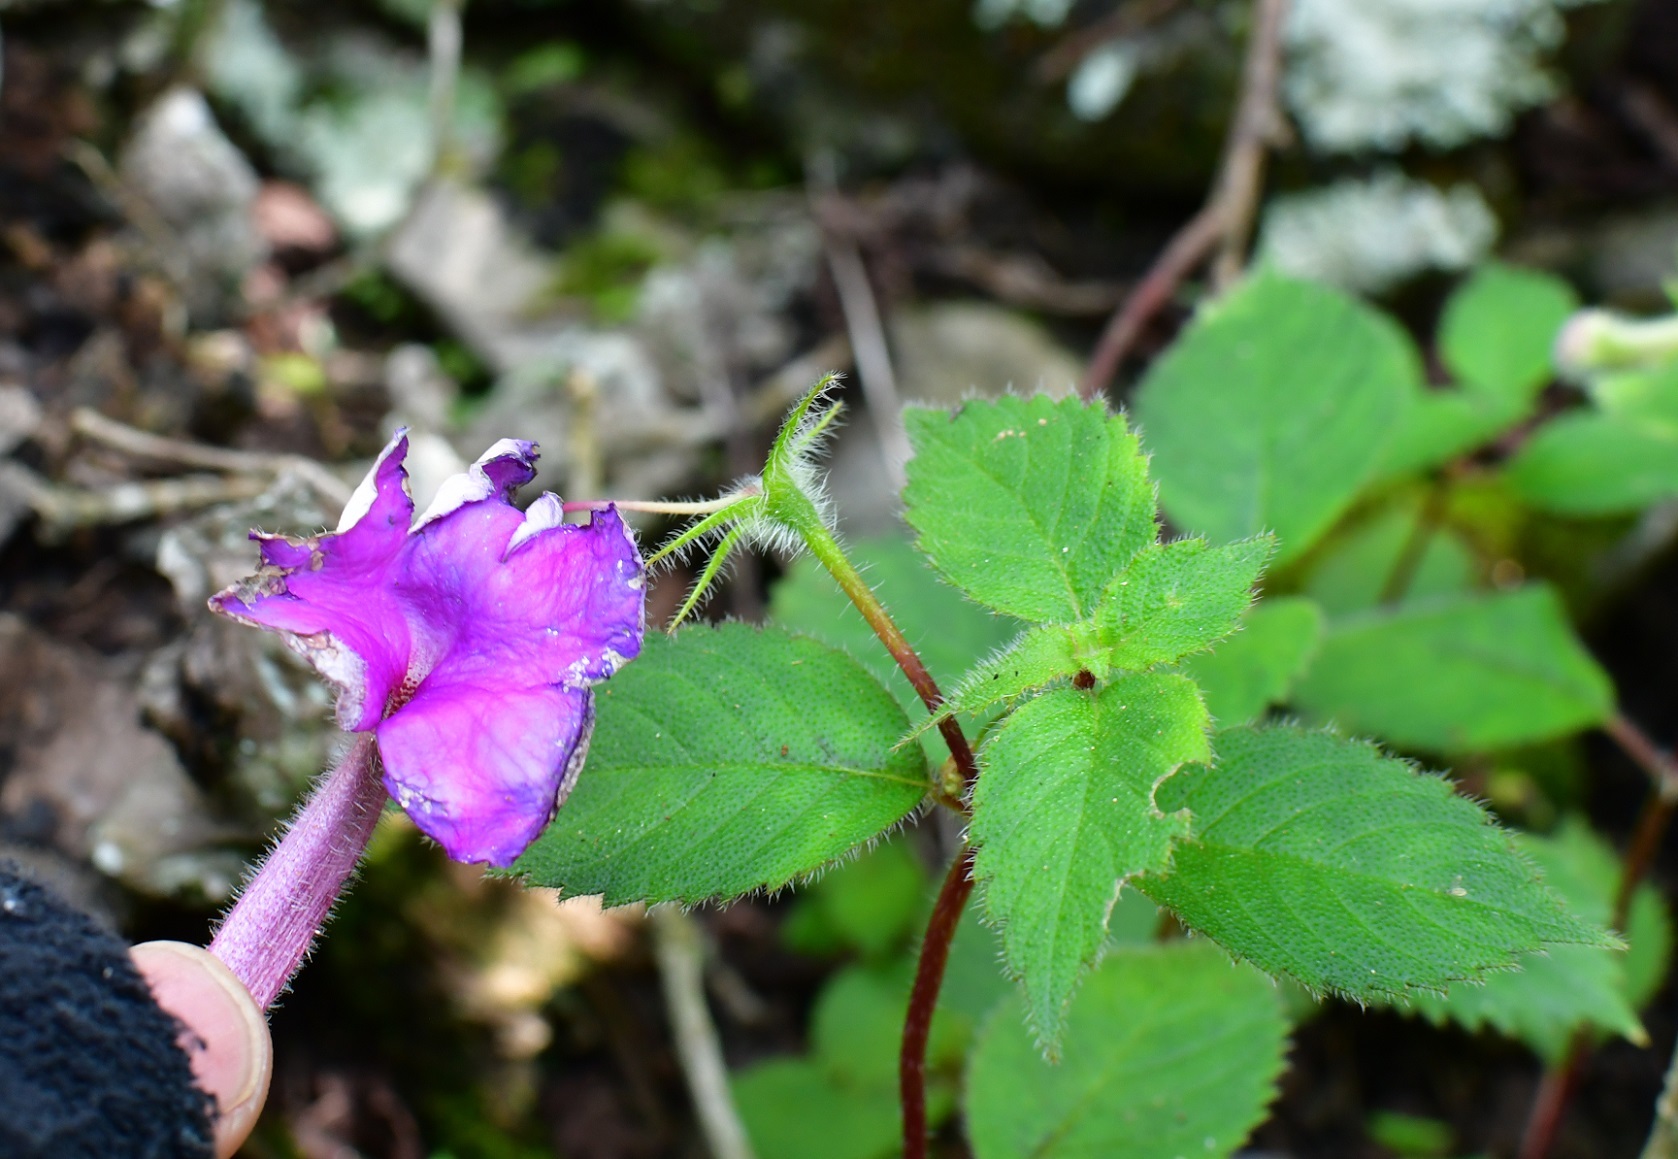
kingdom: Plantae
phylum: Tracheophyta
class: Magnoliopsida
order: Lamiales
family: Gesneriaceae
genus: Achimenes
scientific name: Achimenes skinneri
